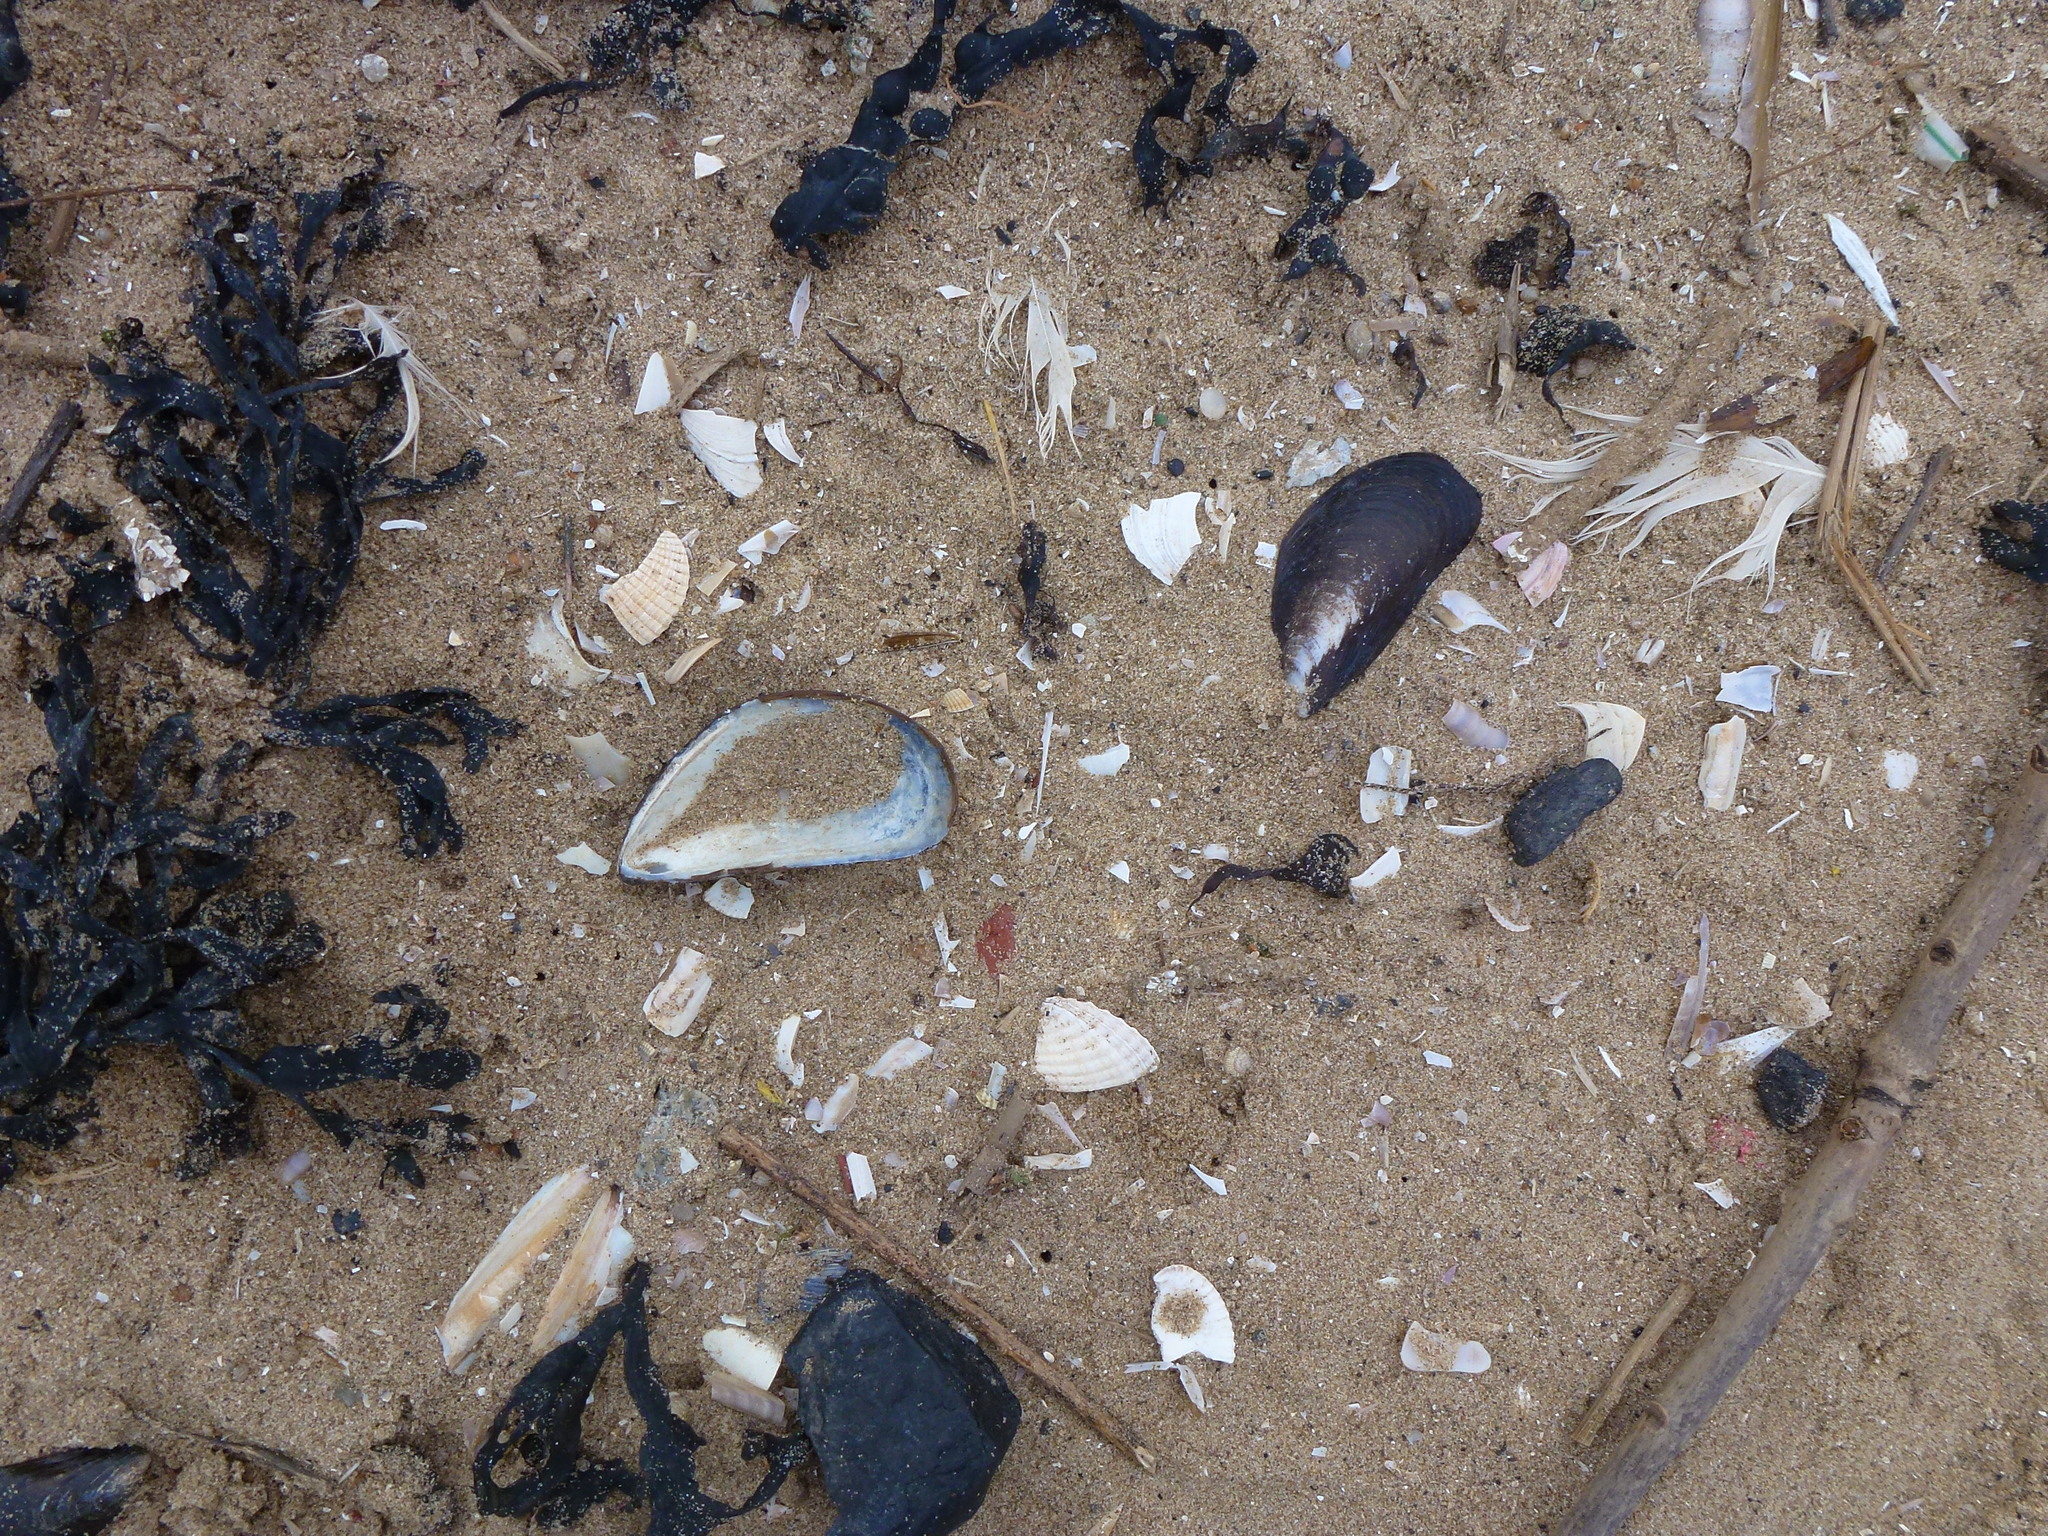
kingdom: Animalia
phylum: Mollusca
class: Bivalvia
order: Mytilida
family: Mytilidae
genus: Mytilus
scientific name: Mytilus edulis
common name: Blue mussel
